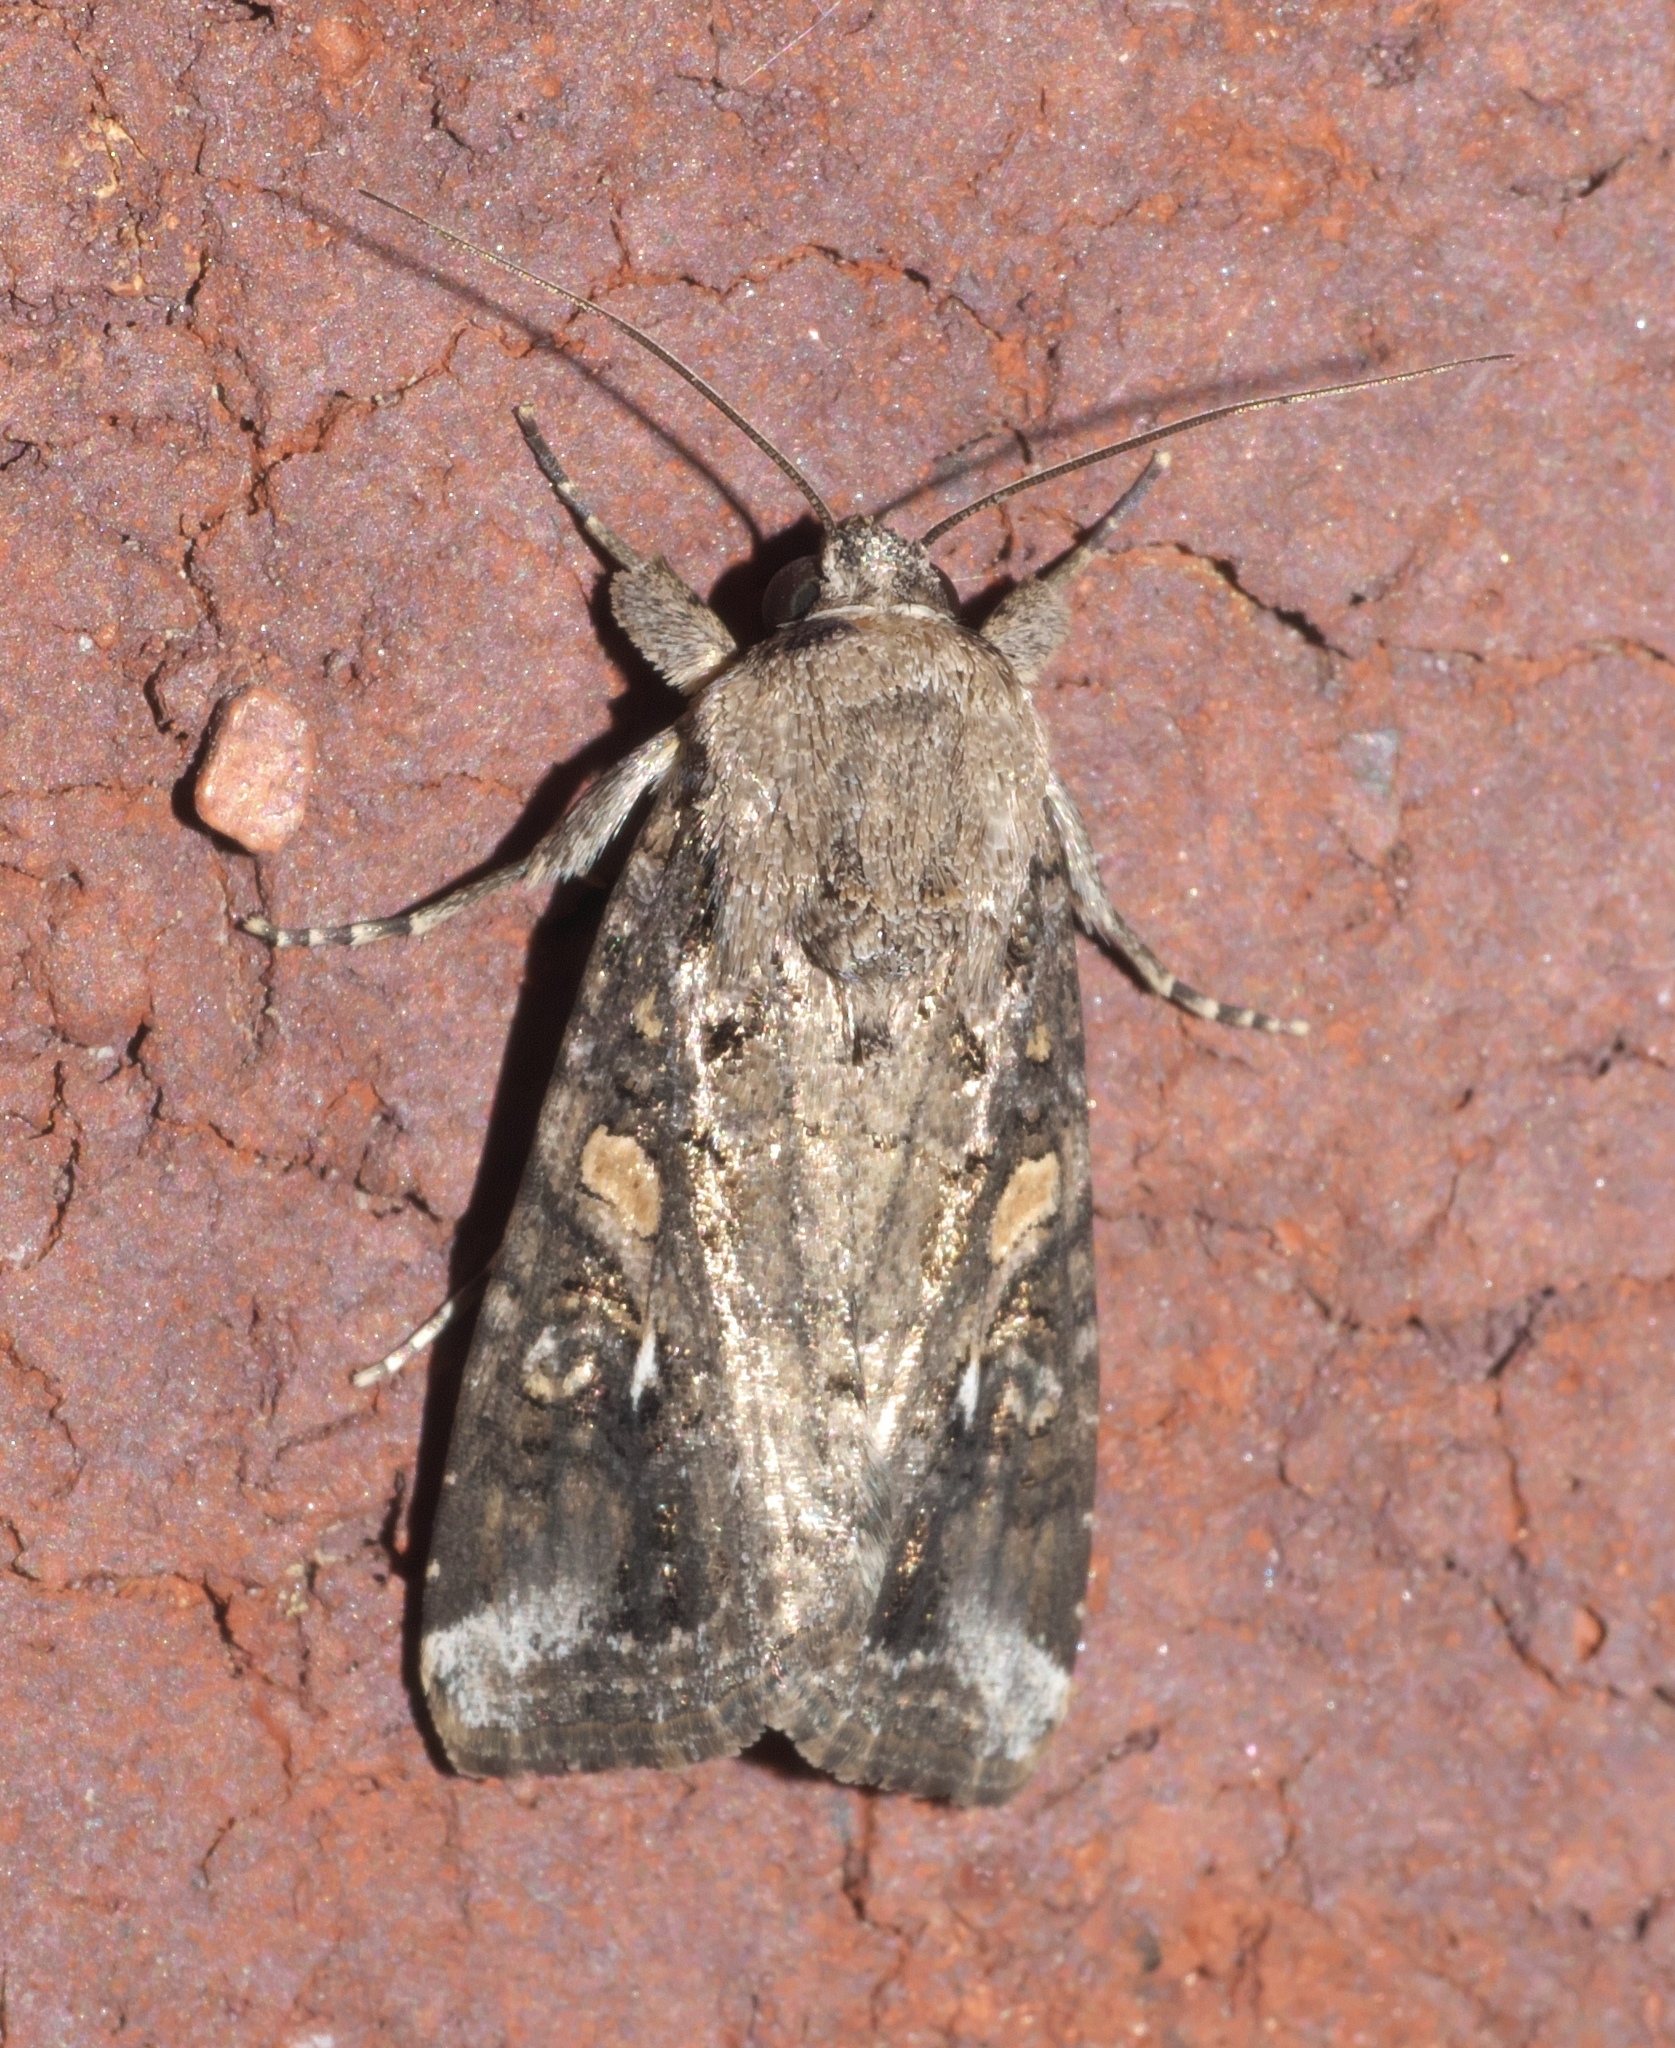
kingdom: Animalia
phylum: Arthropoda
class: Insecta
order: Lepidoptera
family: Noctuidae
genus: Spodoptera
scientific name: Spodoptera frugiperda
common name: Fall armyworm
